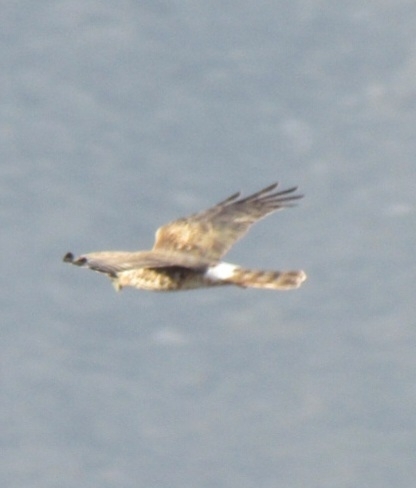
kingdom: Animalia
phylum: Chordata
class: Aves
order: Accipitriformes
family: Accipitridae
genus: Circus
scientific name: Circus cyaneus
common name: Hen harrier
